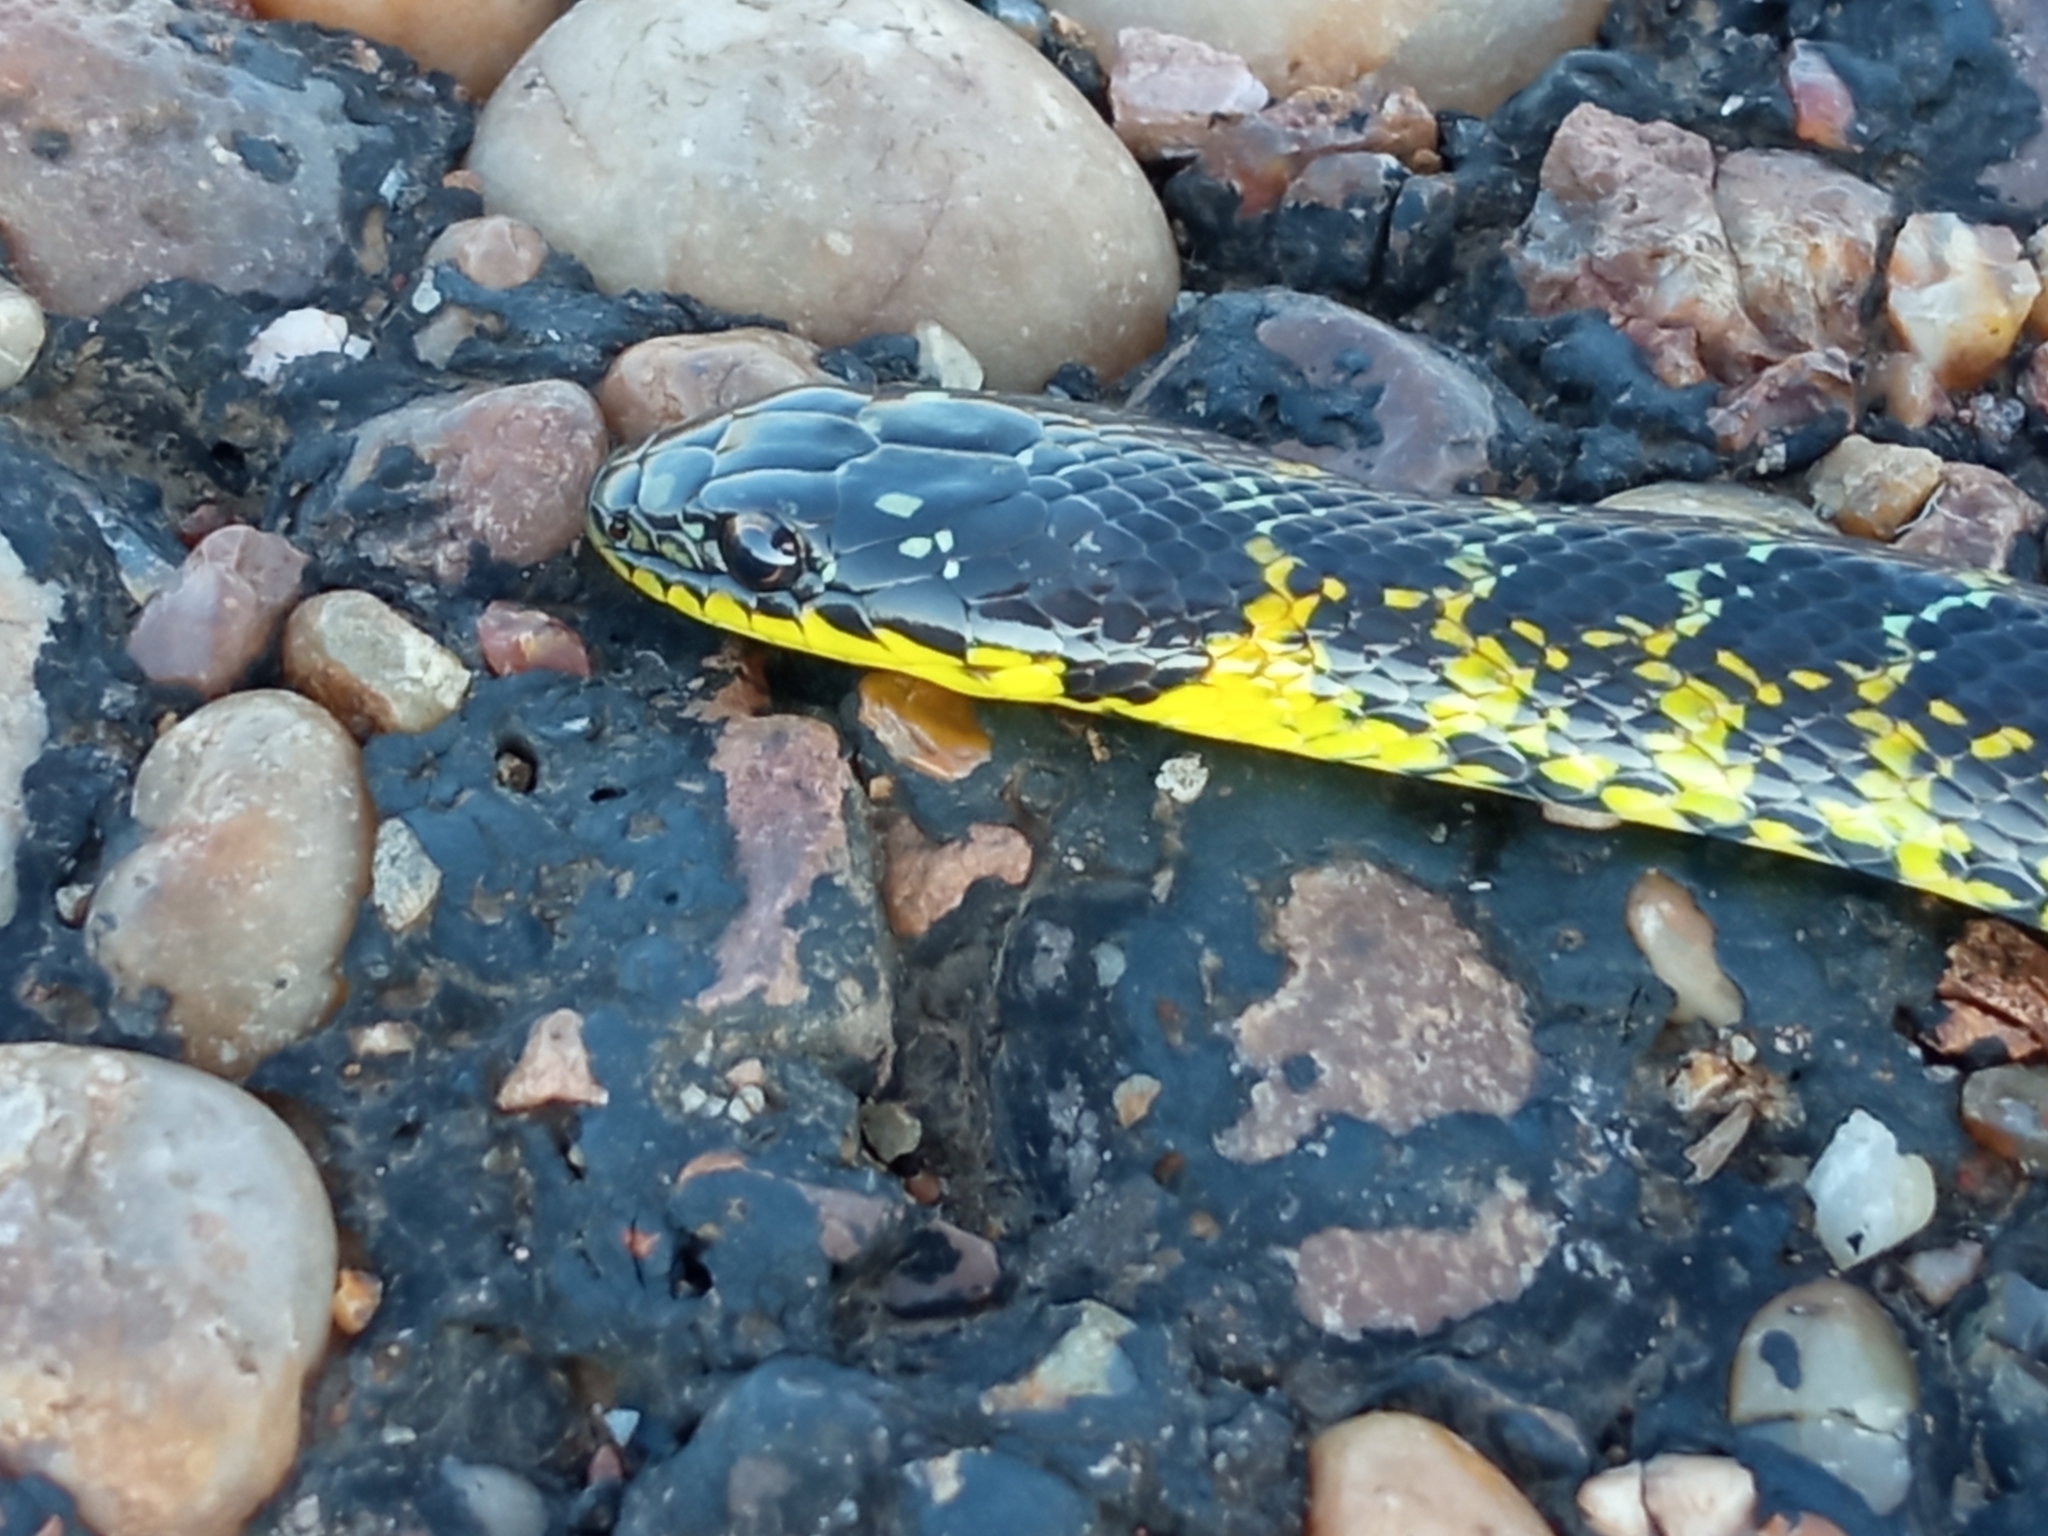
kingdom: Animalia
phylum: Chordata
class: Squamata
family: Colubridae
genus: Erythrolamprus
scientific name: Erythrolamprus poecilogyrus
